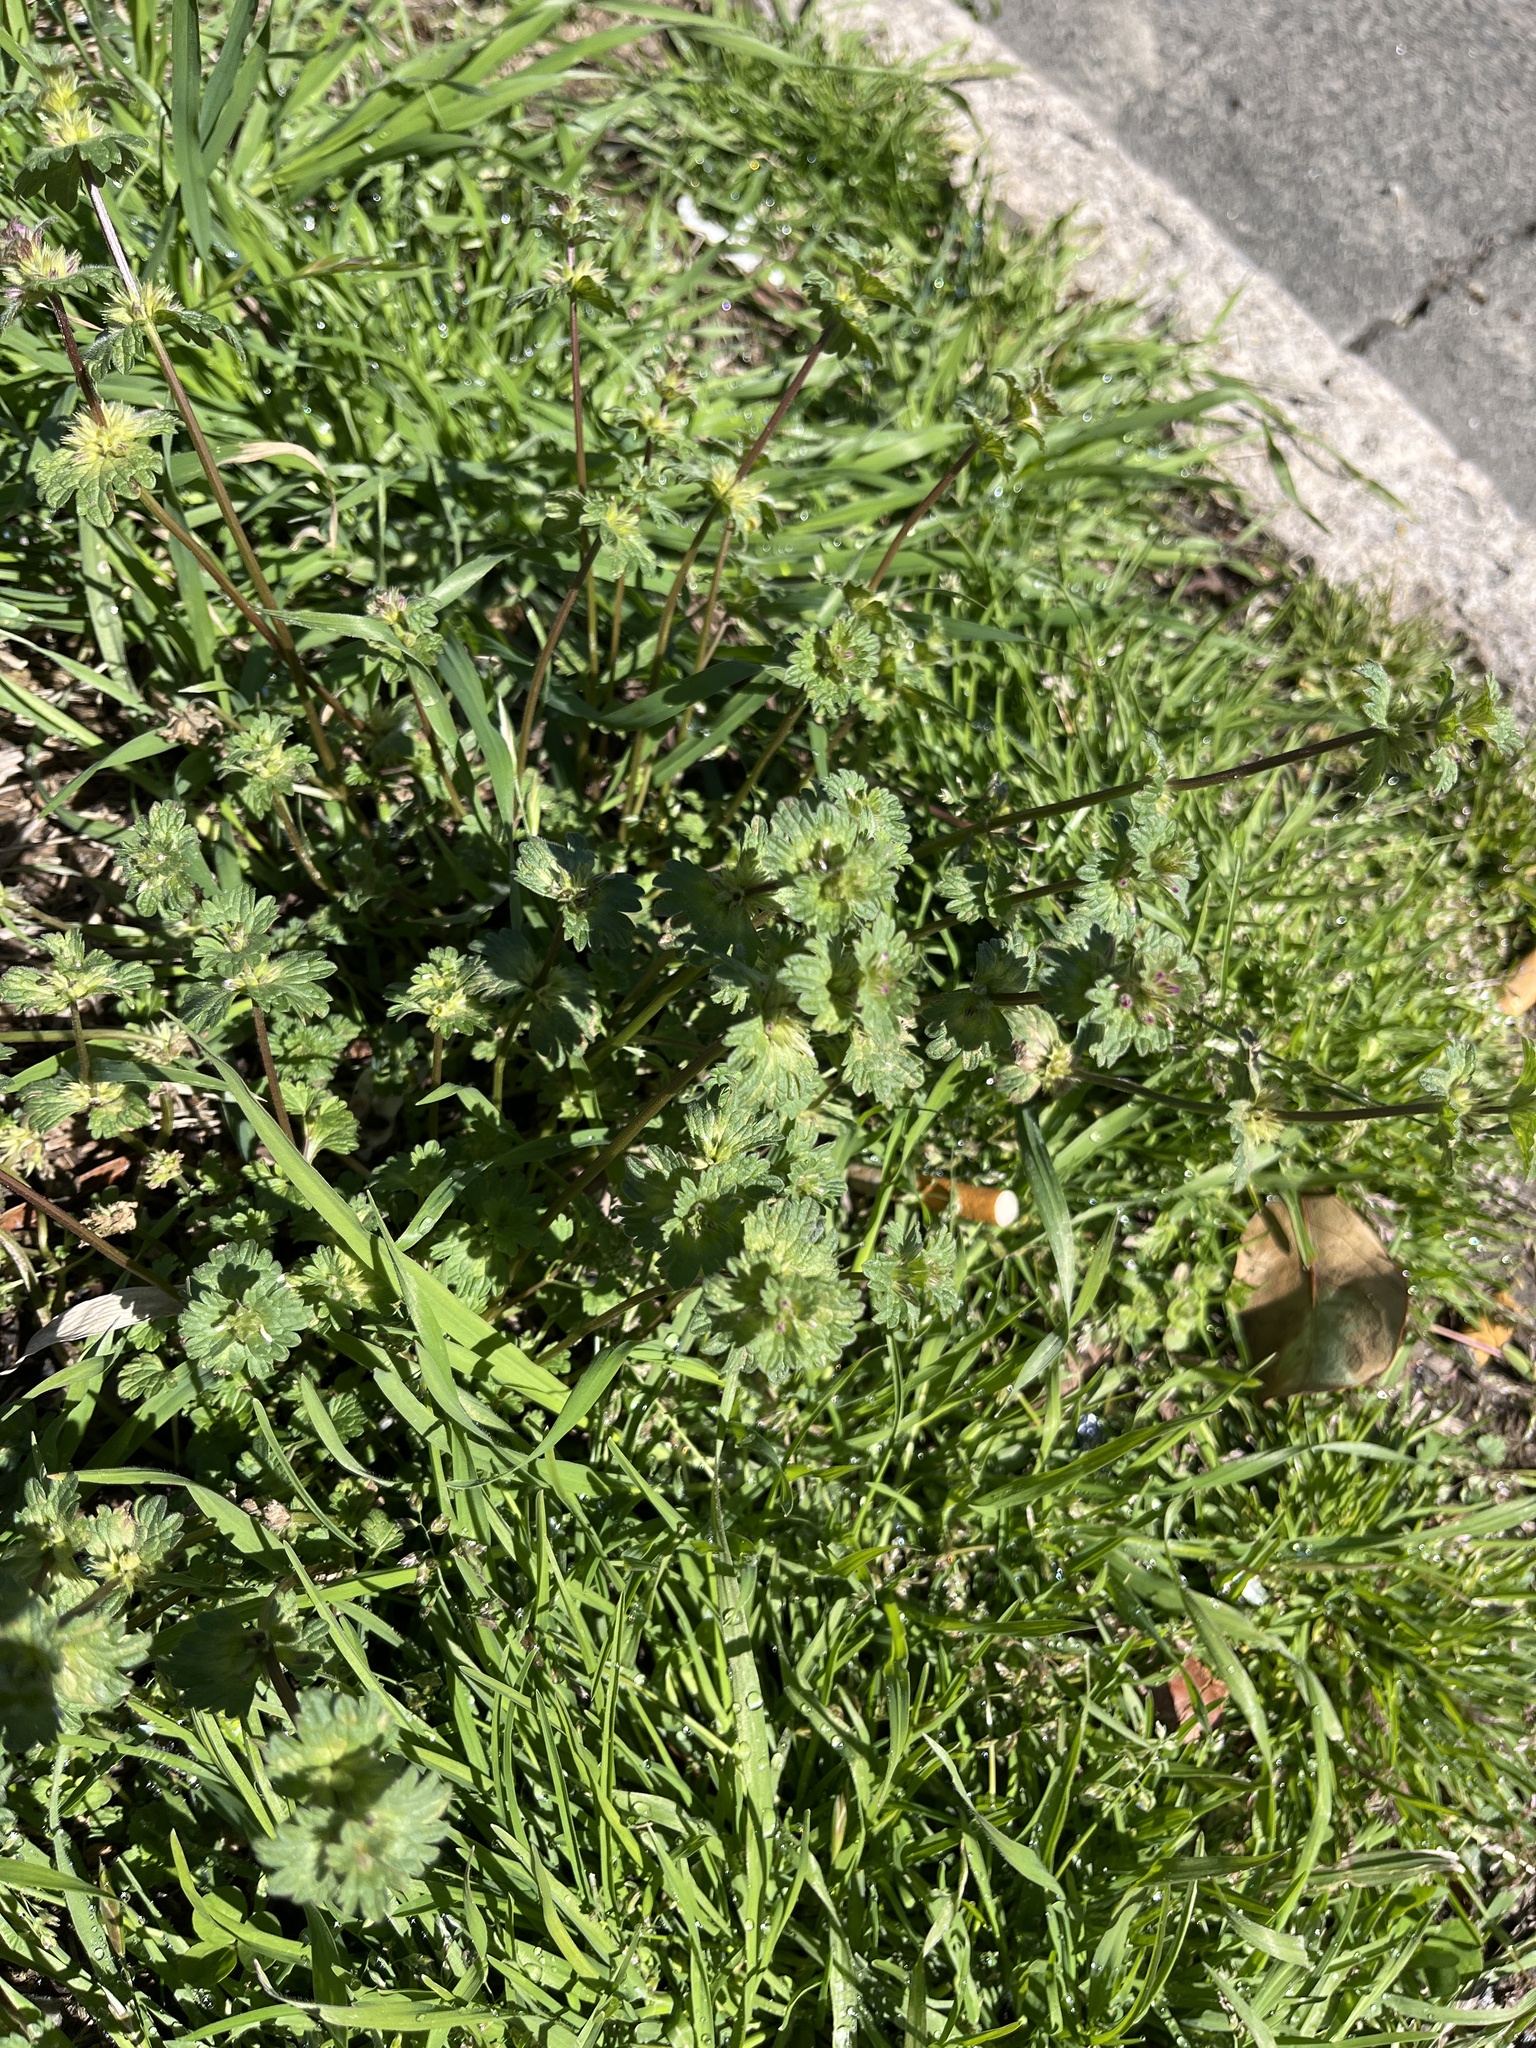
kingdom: Plantae
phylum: Tracheophyta
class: Magnoliopsida
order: Lamiales
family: Lamiaceae
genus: Lamium
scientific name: Lamium amplexicaule
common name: Henbit dead-nettle
